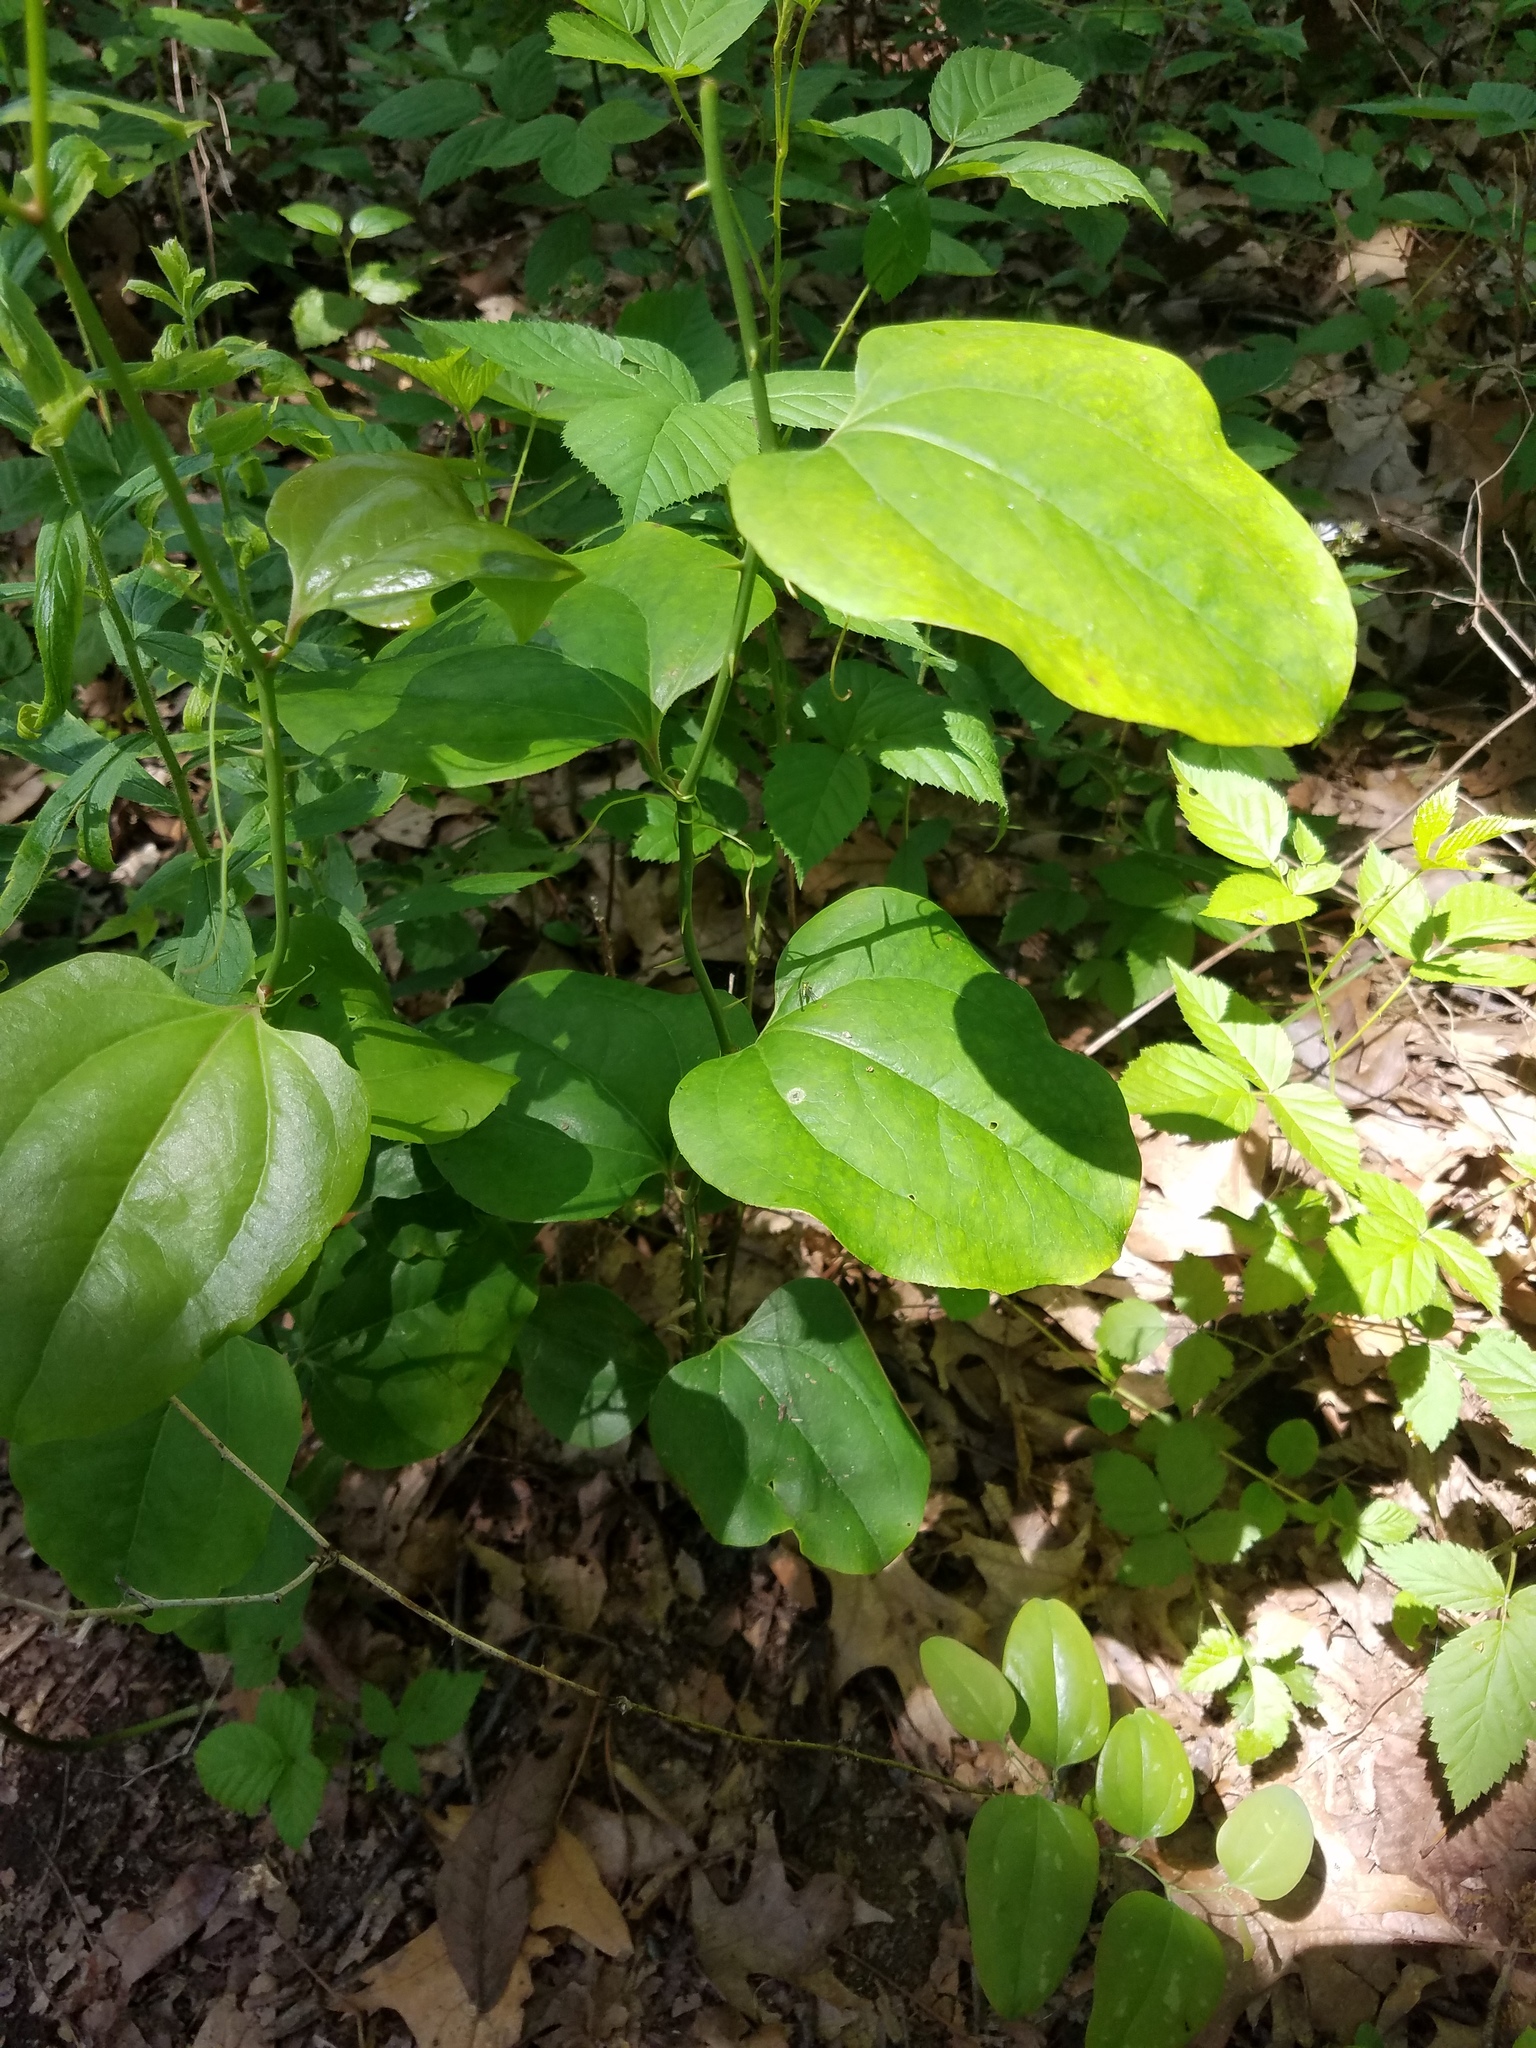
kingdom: Plantae
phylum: Tracheophyta
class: Liliopsida
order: Liliales
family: Smilacaceae
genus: Smilax
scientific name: Smilax rotundifolia
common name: Bullbriar
